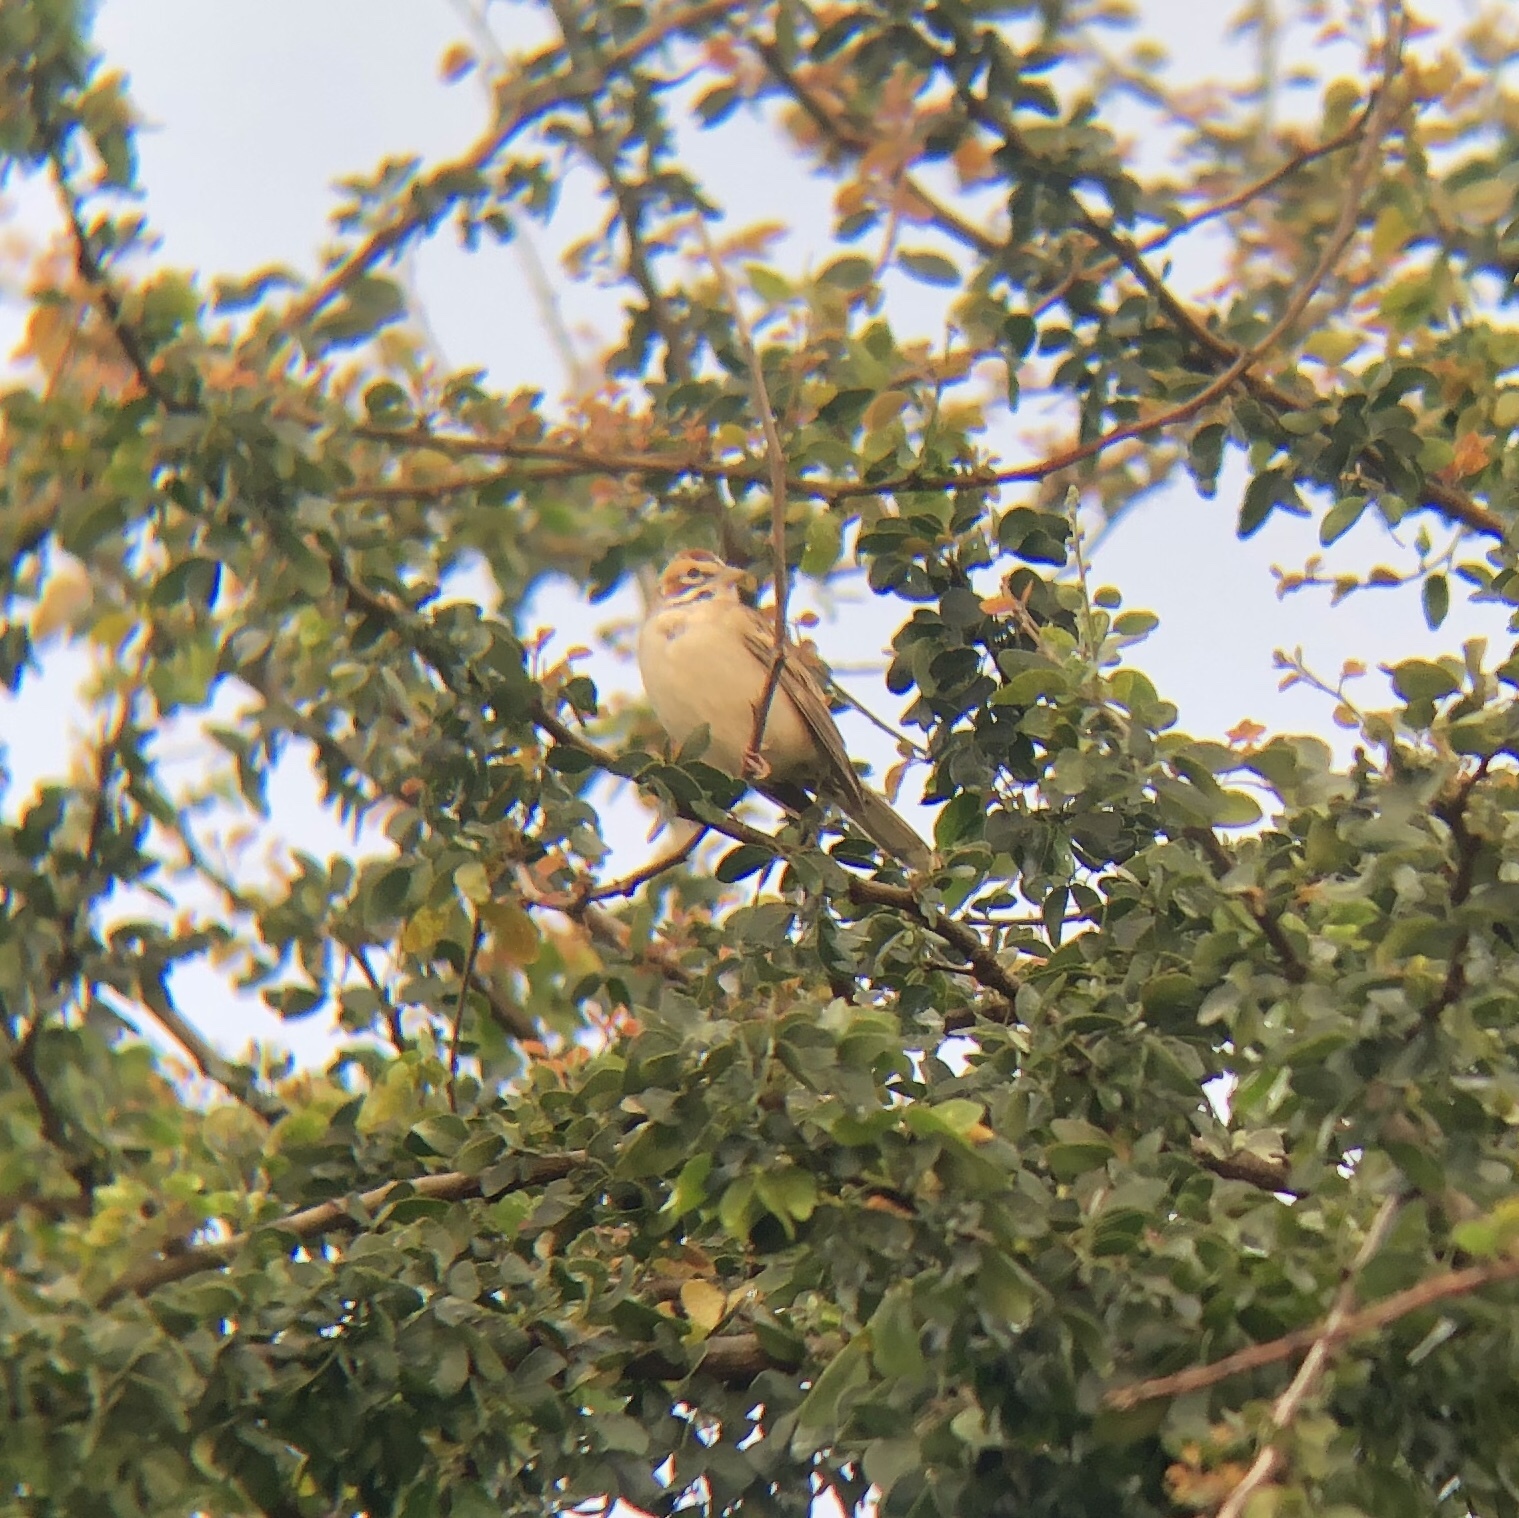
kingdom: Animalia
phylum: Chordata
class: Aves
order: Passeriformes
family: Passerellidae
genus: Chondestes
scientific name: Chondestes grammacus
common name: Lark sparrow
